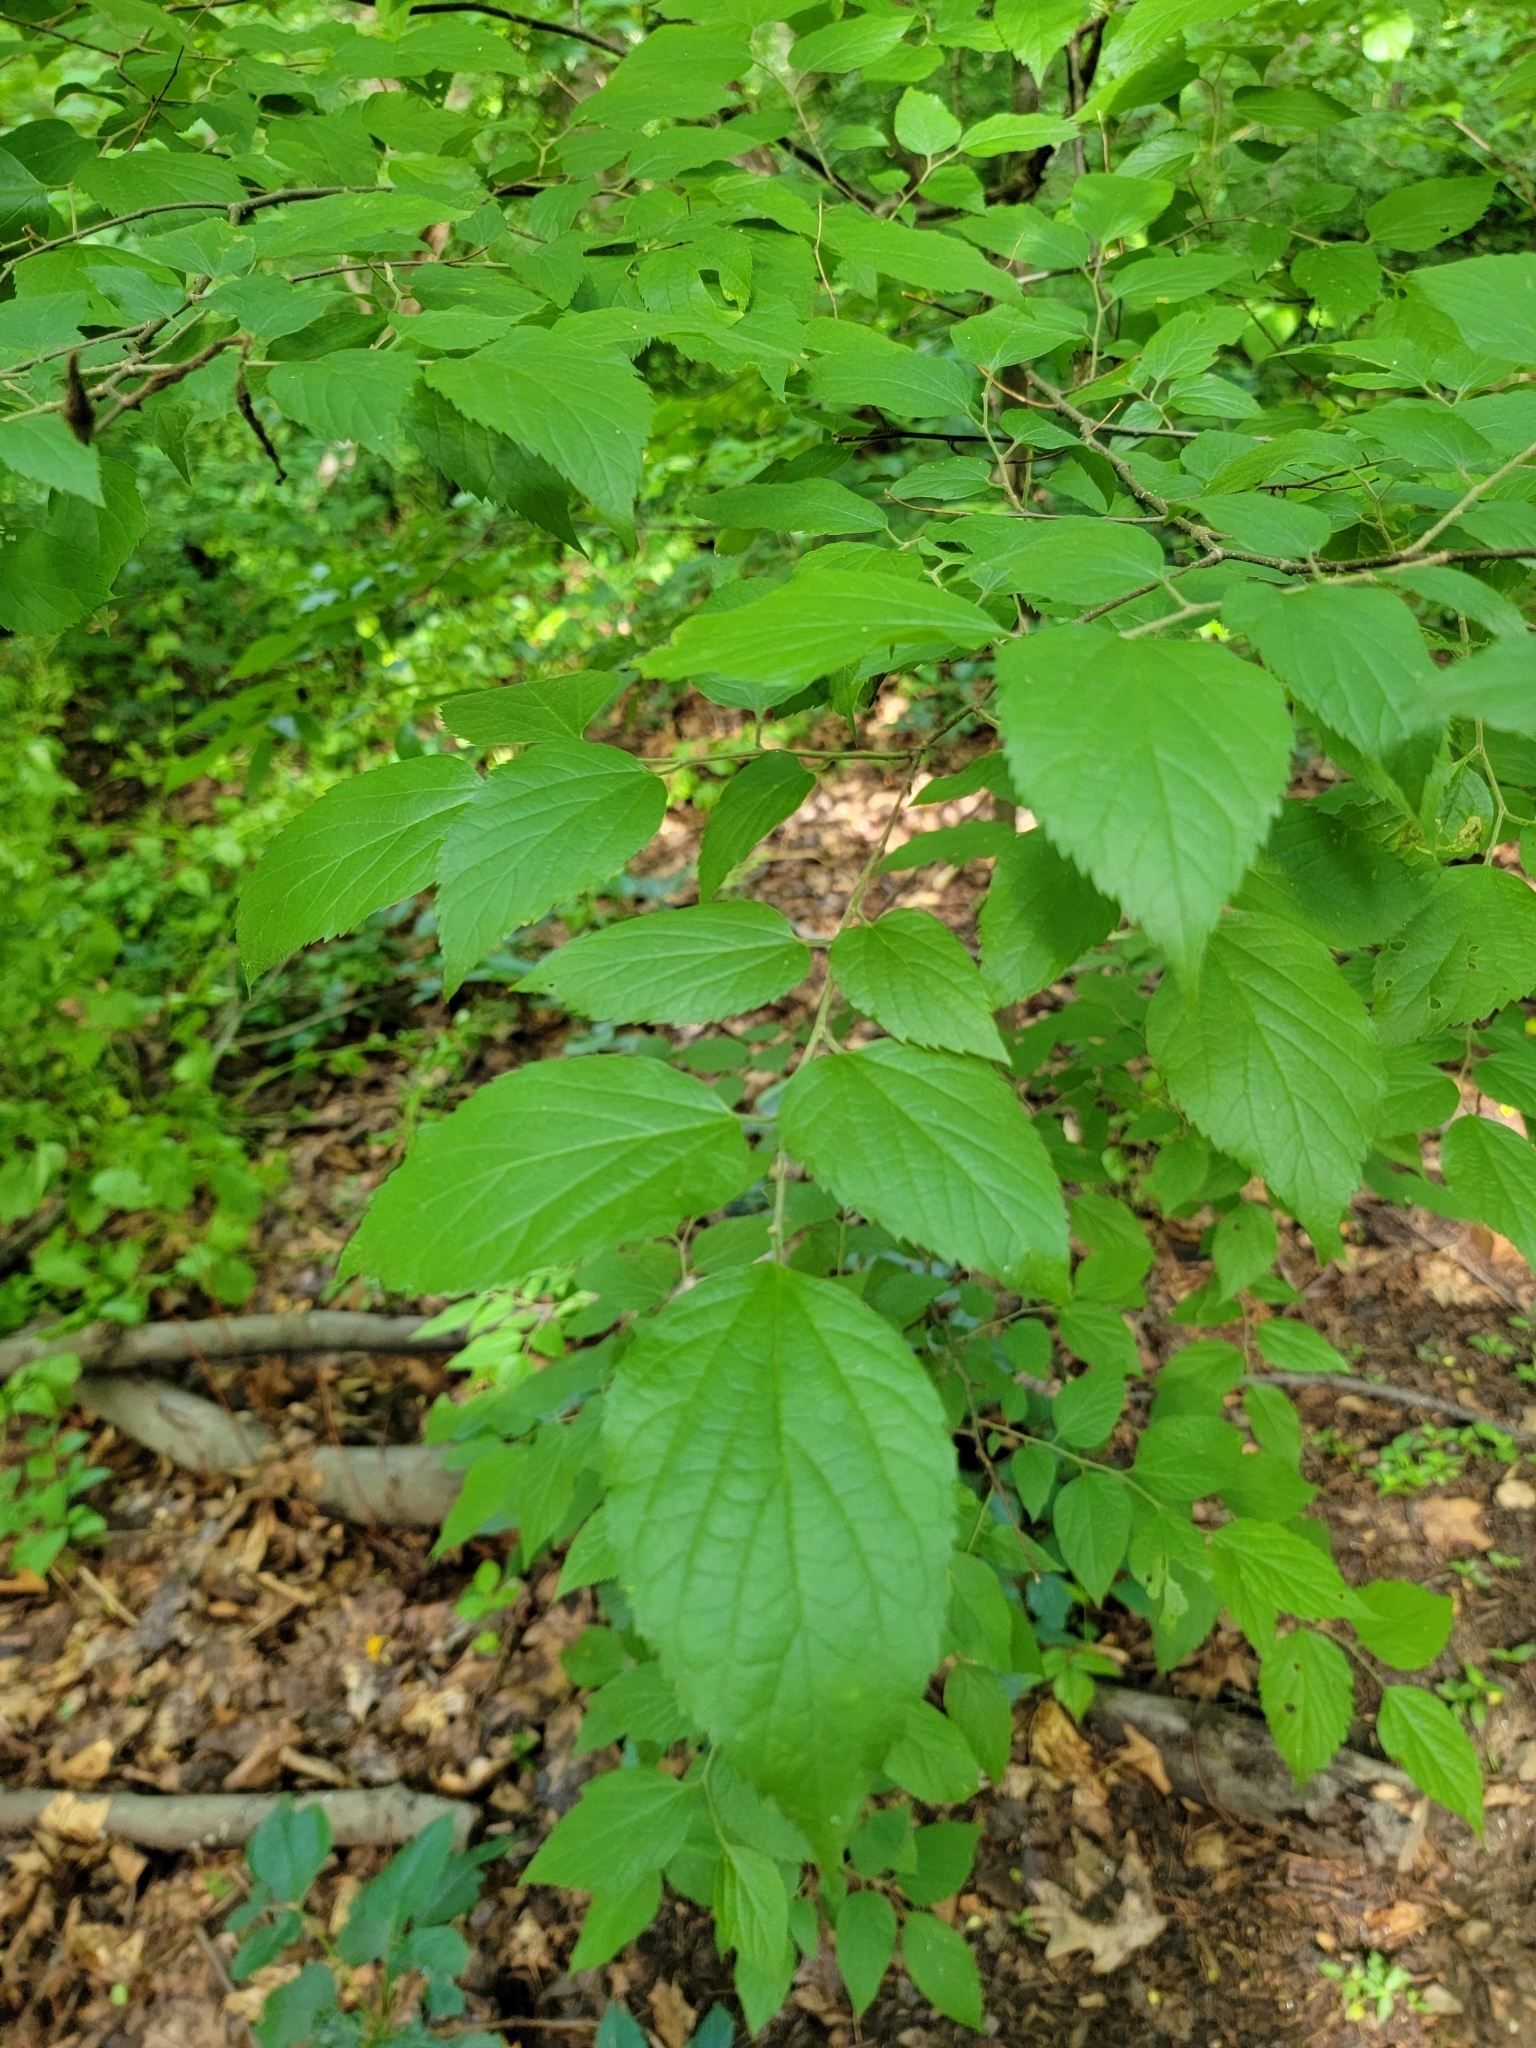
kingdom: Plantae
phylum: Tracheophyta
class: Magnoliopsida
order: Rosales
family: Cannabaceae
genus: Celtis
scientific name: Celtis occidentalis
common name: Common hackberry
